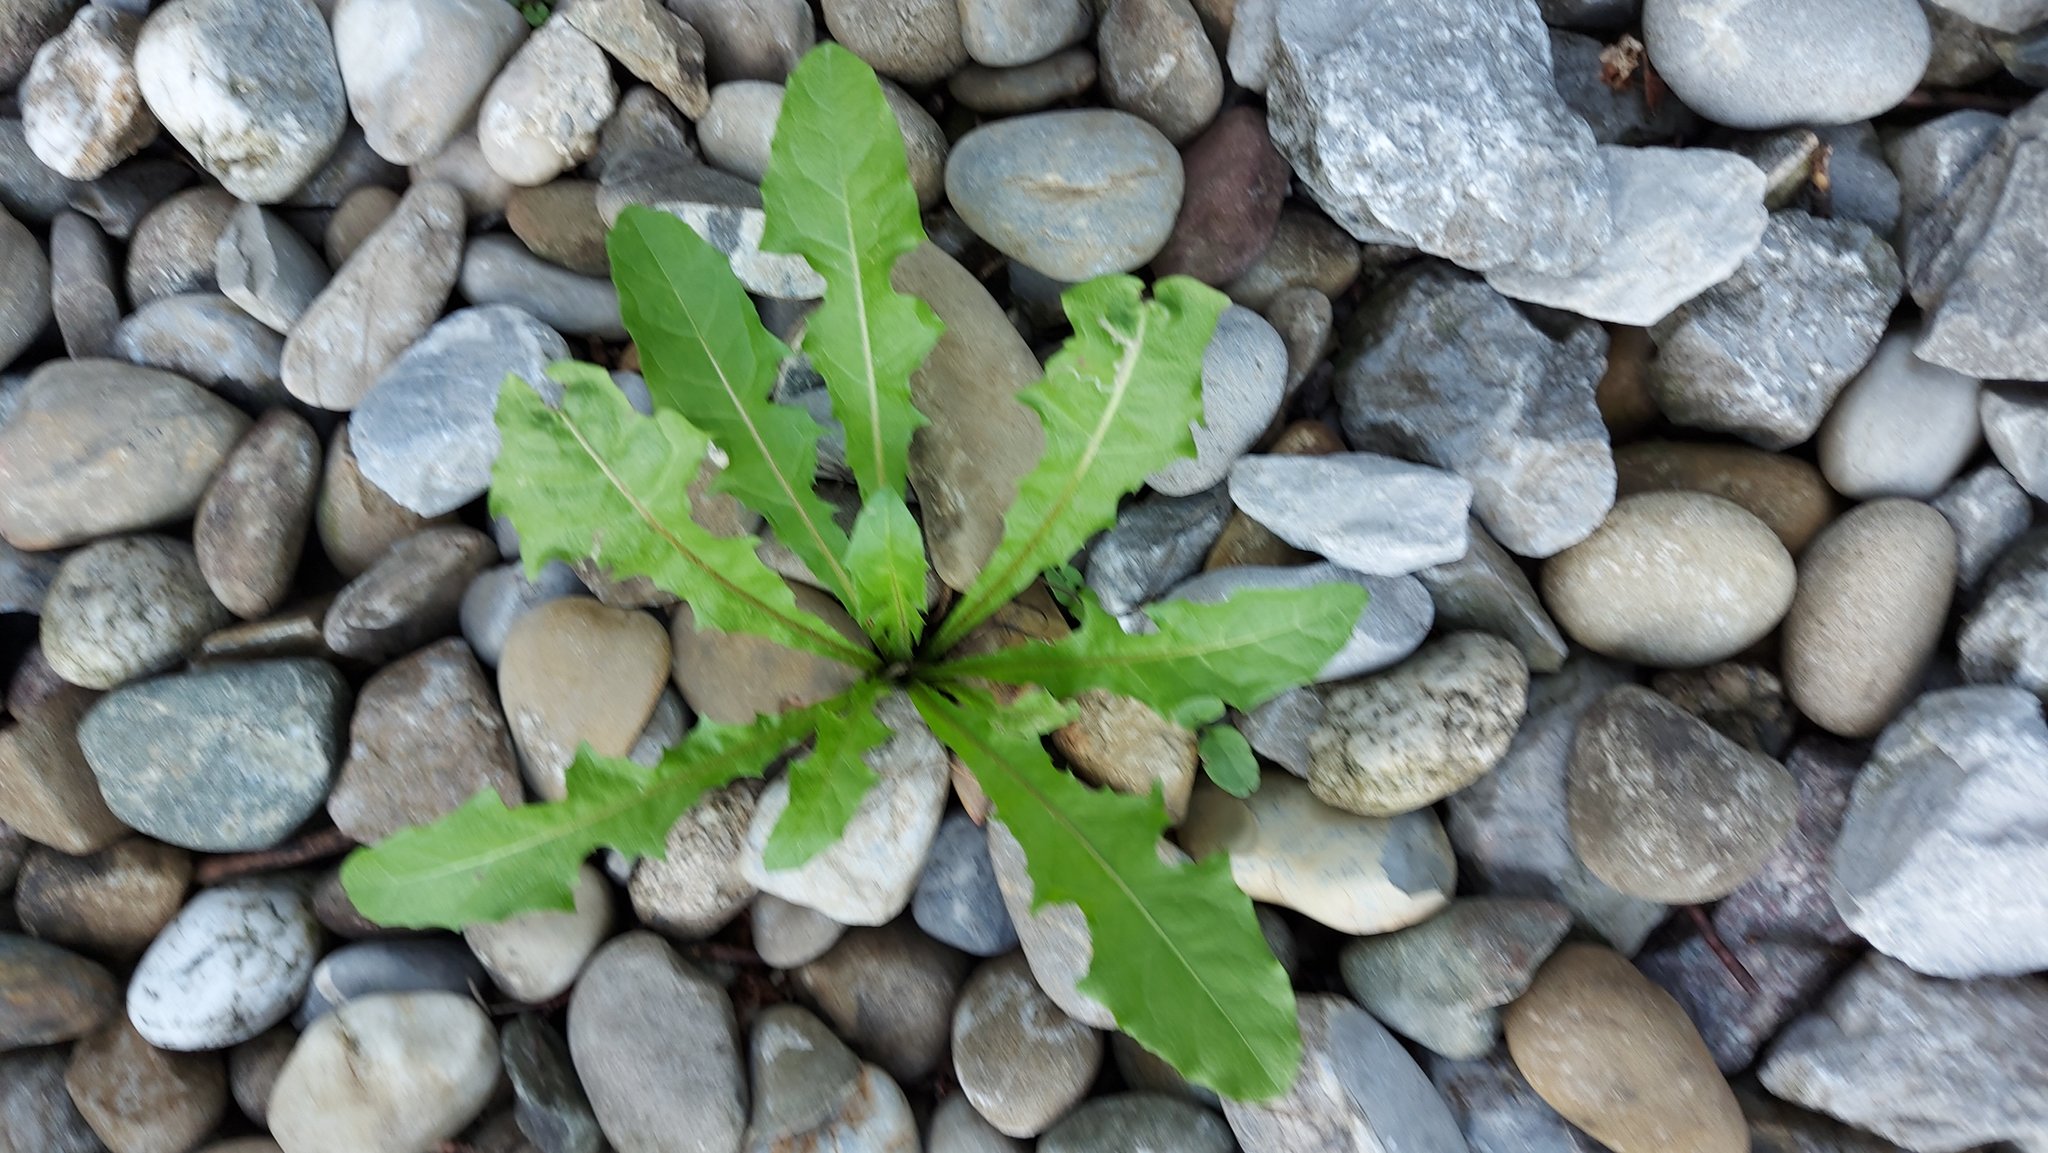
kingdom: Plantae
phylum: Tracheophyta
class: Magnoliopsida
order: Asterales
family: Asteraceae
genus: Taraxacum
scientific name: Taraxacum officinale
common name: Common dandelion
